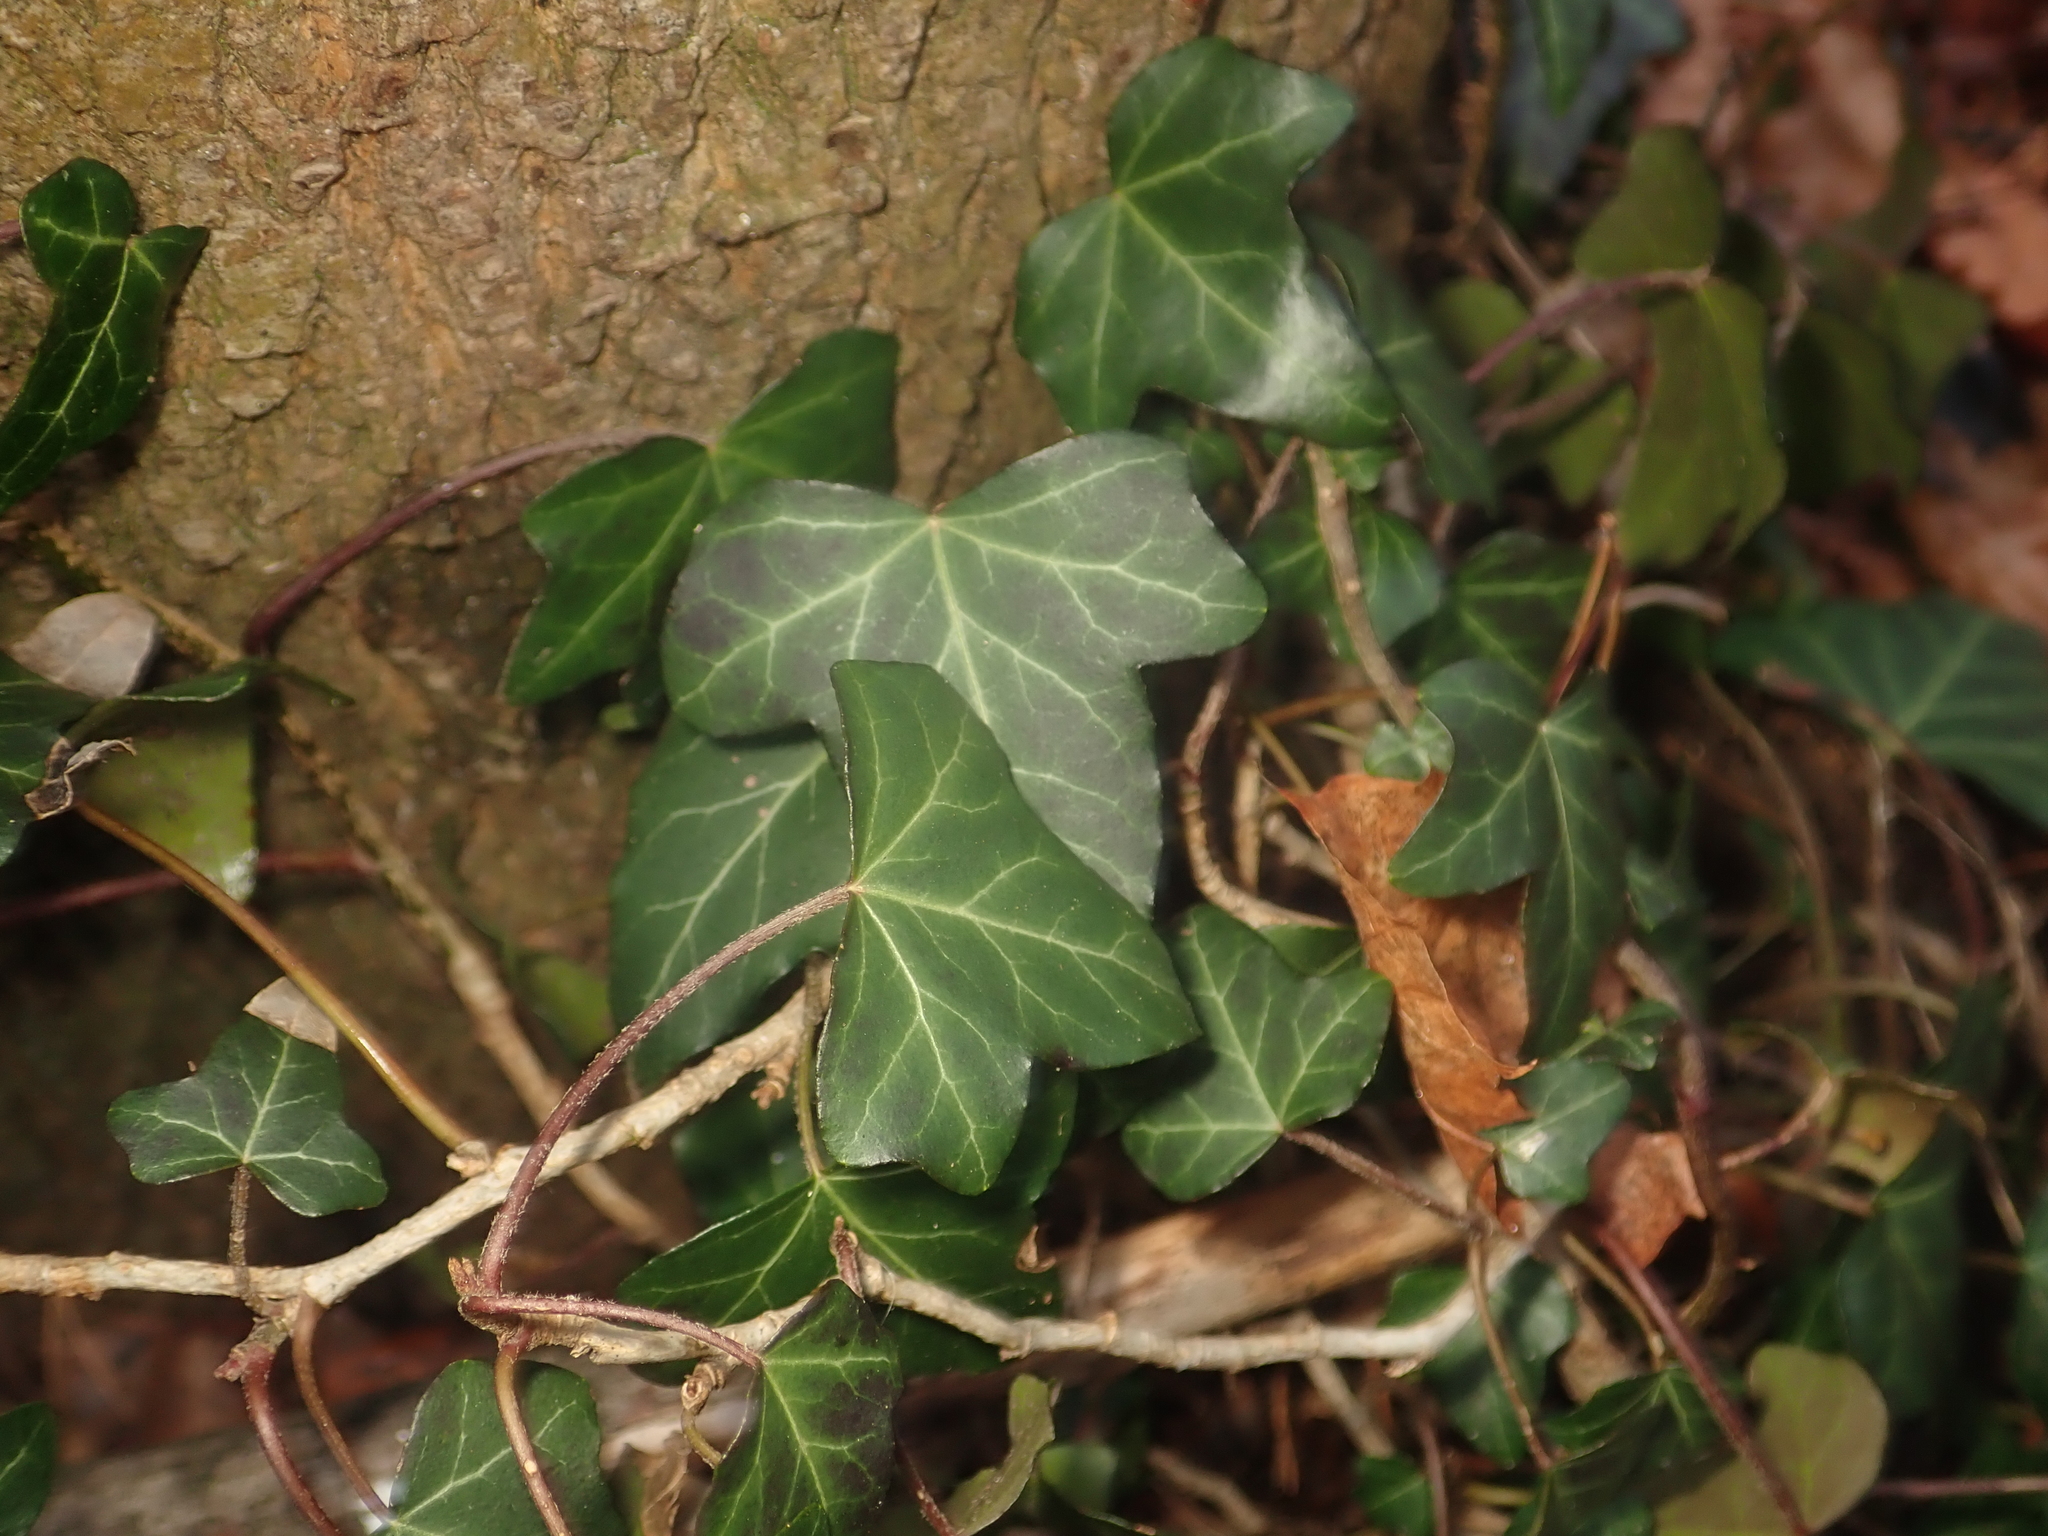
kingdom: Plantae
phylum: Tracheophyta
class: Magnoliopsida
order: Apiales
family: Araliaceae
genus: Hedera
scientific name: Hedera helix
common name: Ivy
